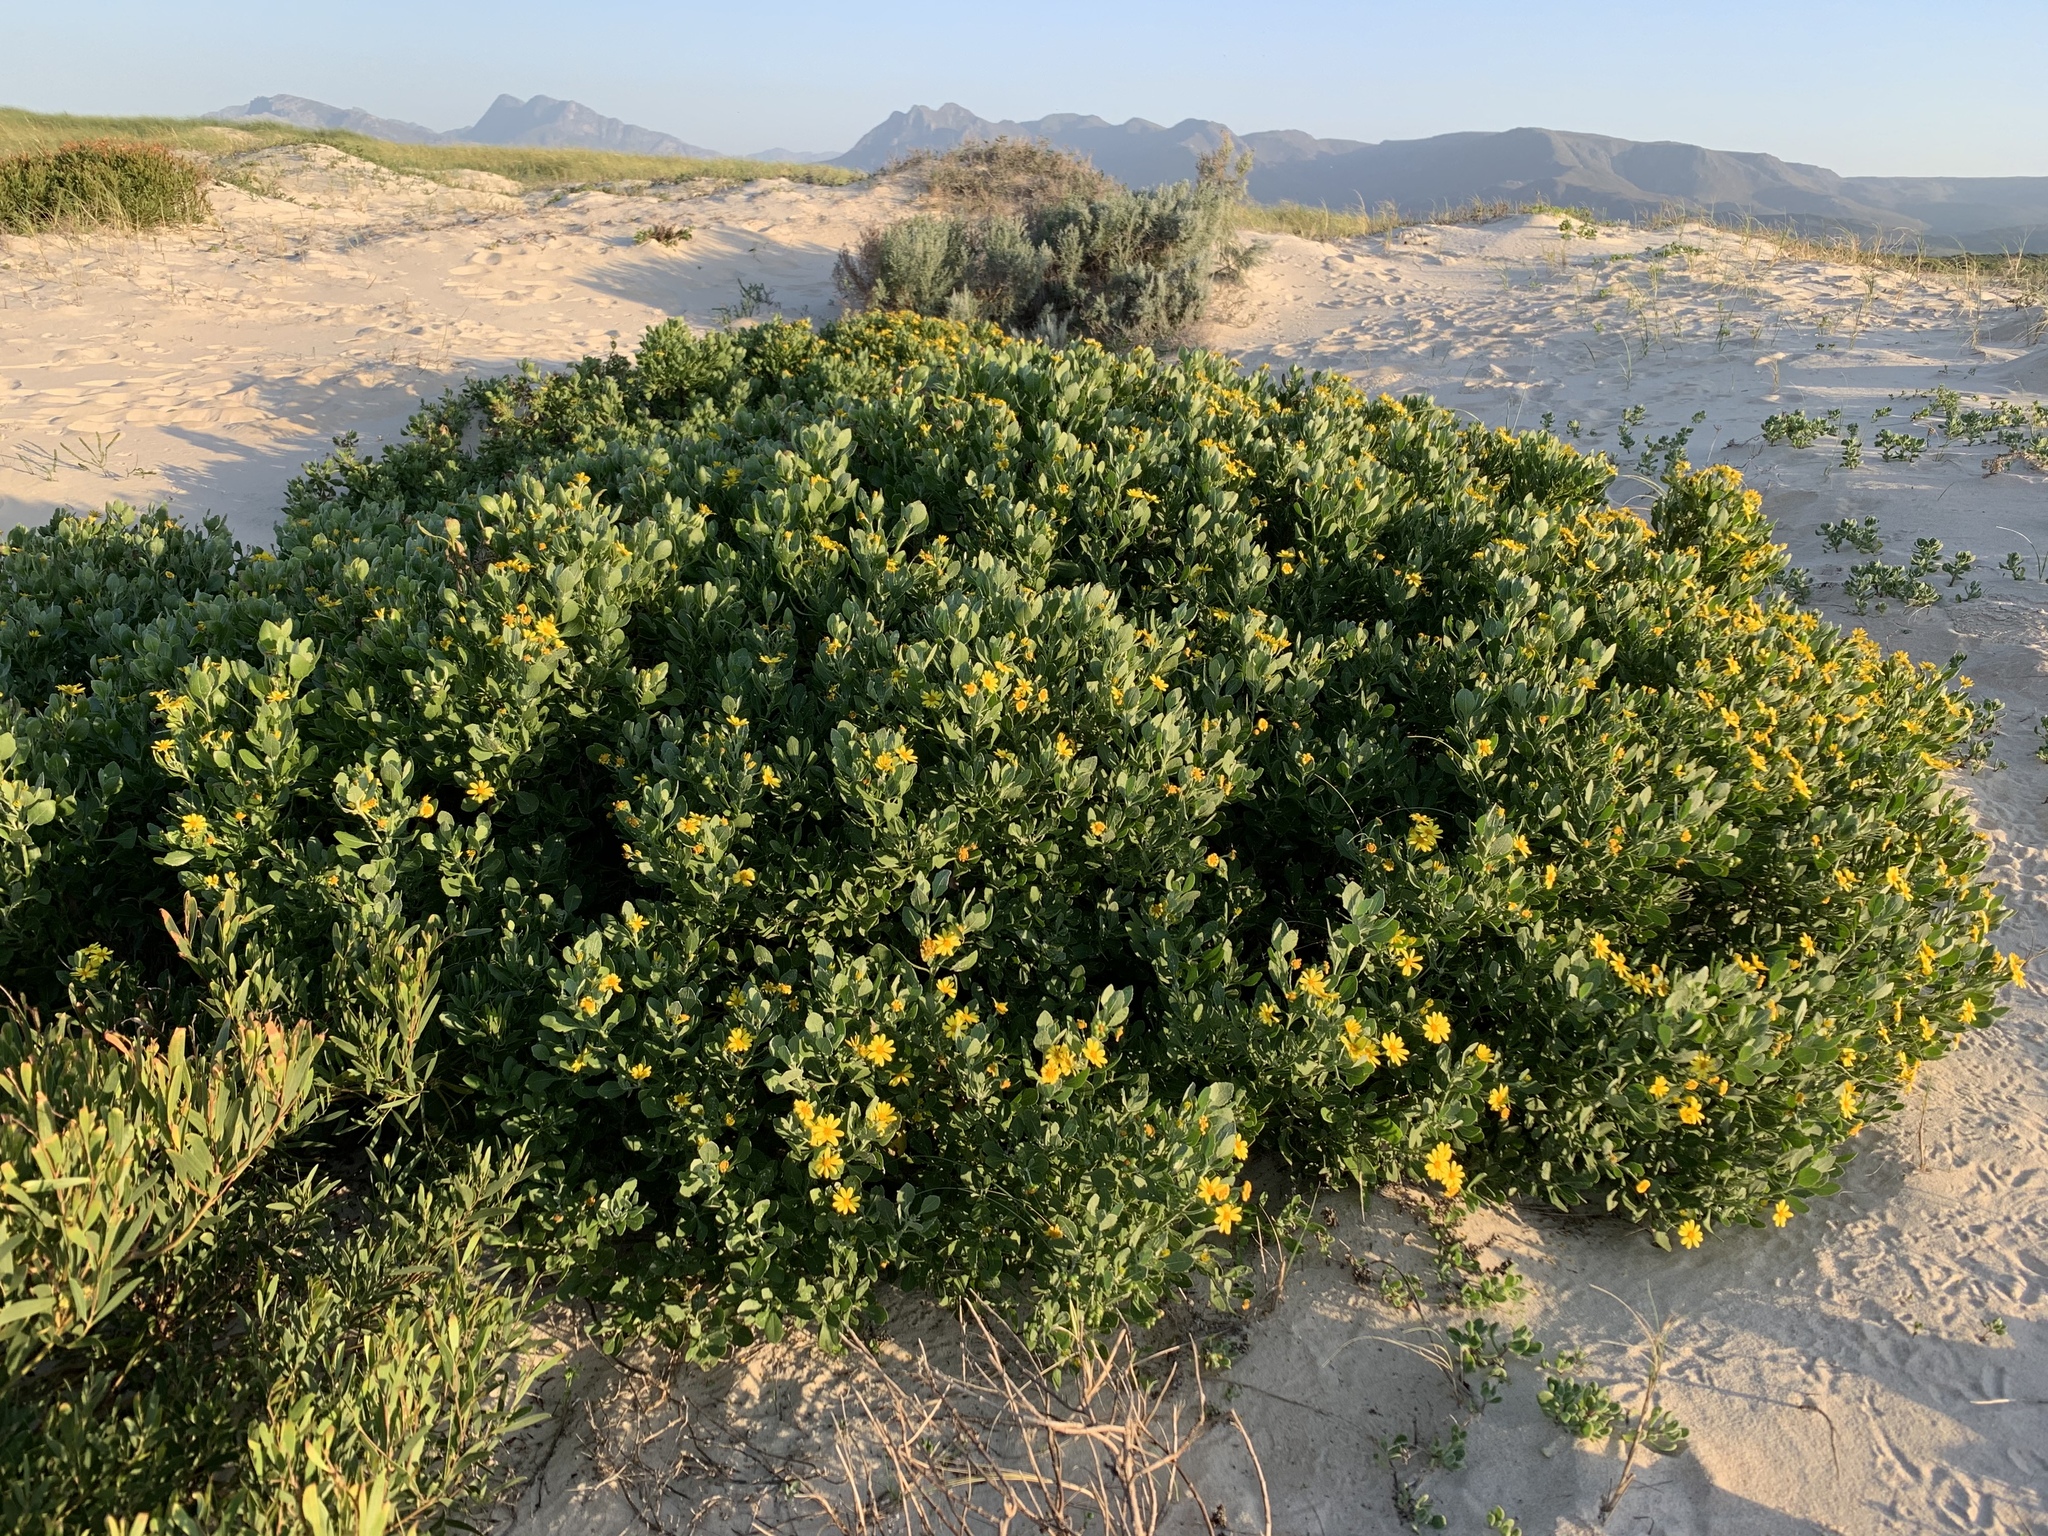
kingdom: Plantae
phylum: Tracheophyta
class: Magnoliopsida
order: Asterales
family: Asteraceae
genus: Osteospermum
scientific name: Osteospermum moniliferum
